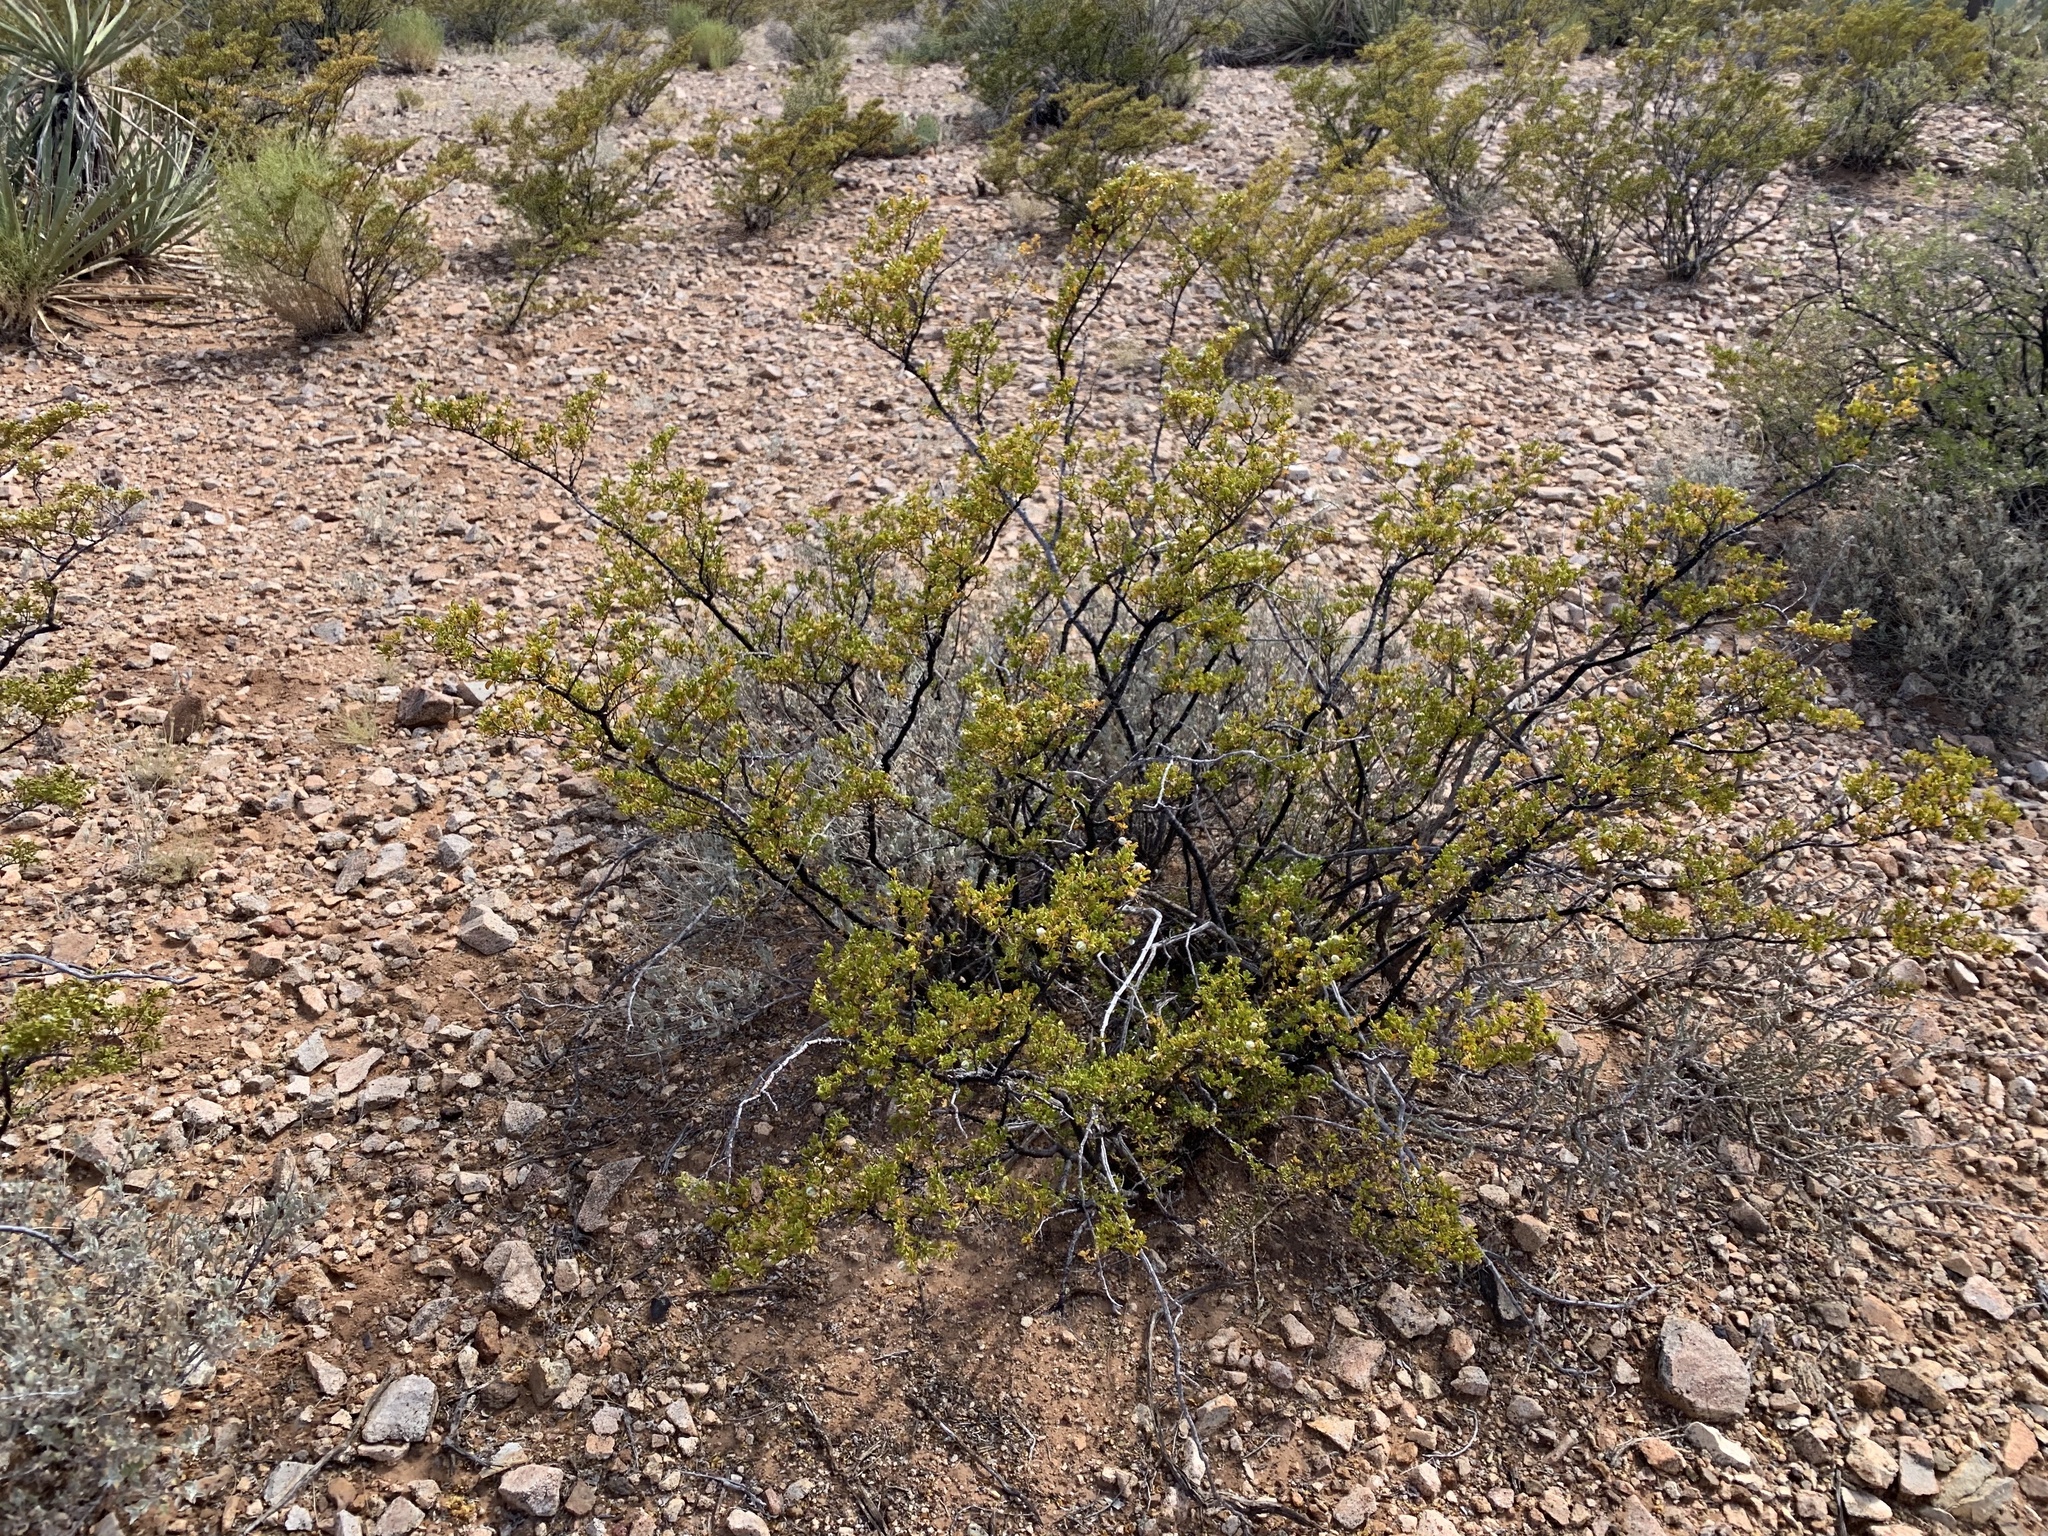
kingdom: Plantae
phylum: Tracheophyta
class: Magnoliopsida
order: Zygophyllales
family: Zygophyllaceae
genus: Larrea
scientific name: Larrea tridentata
